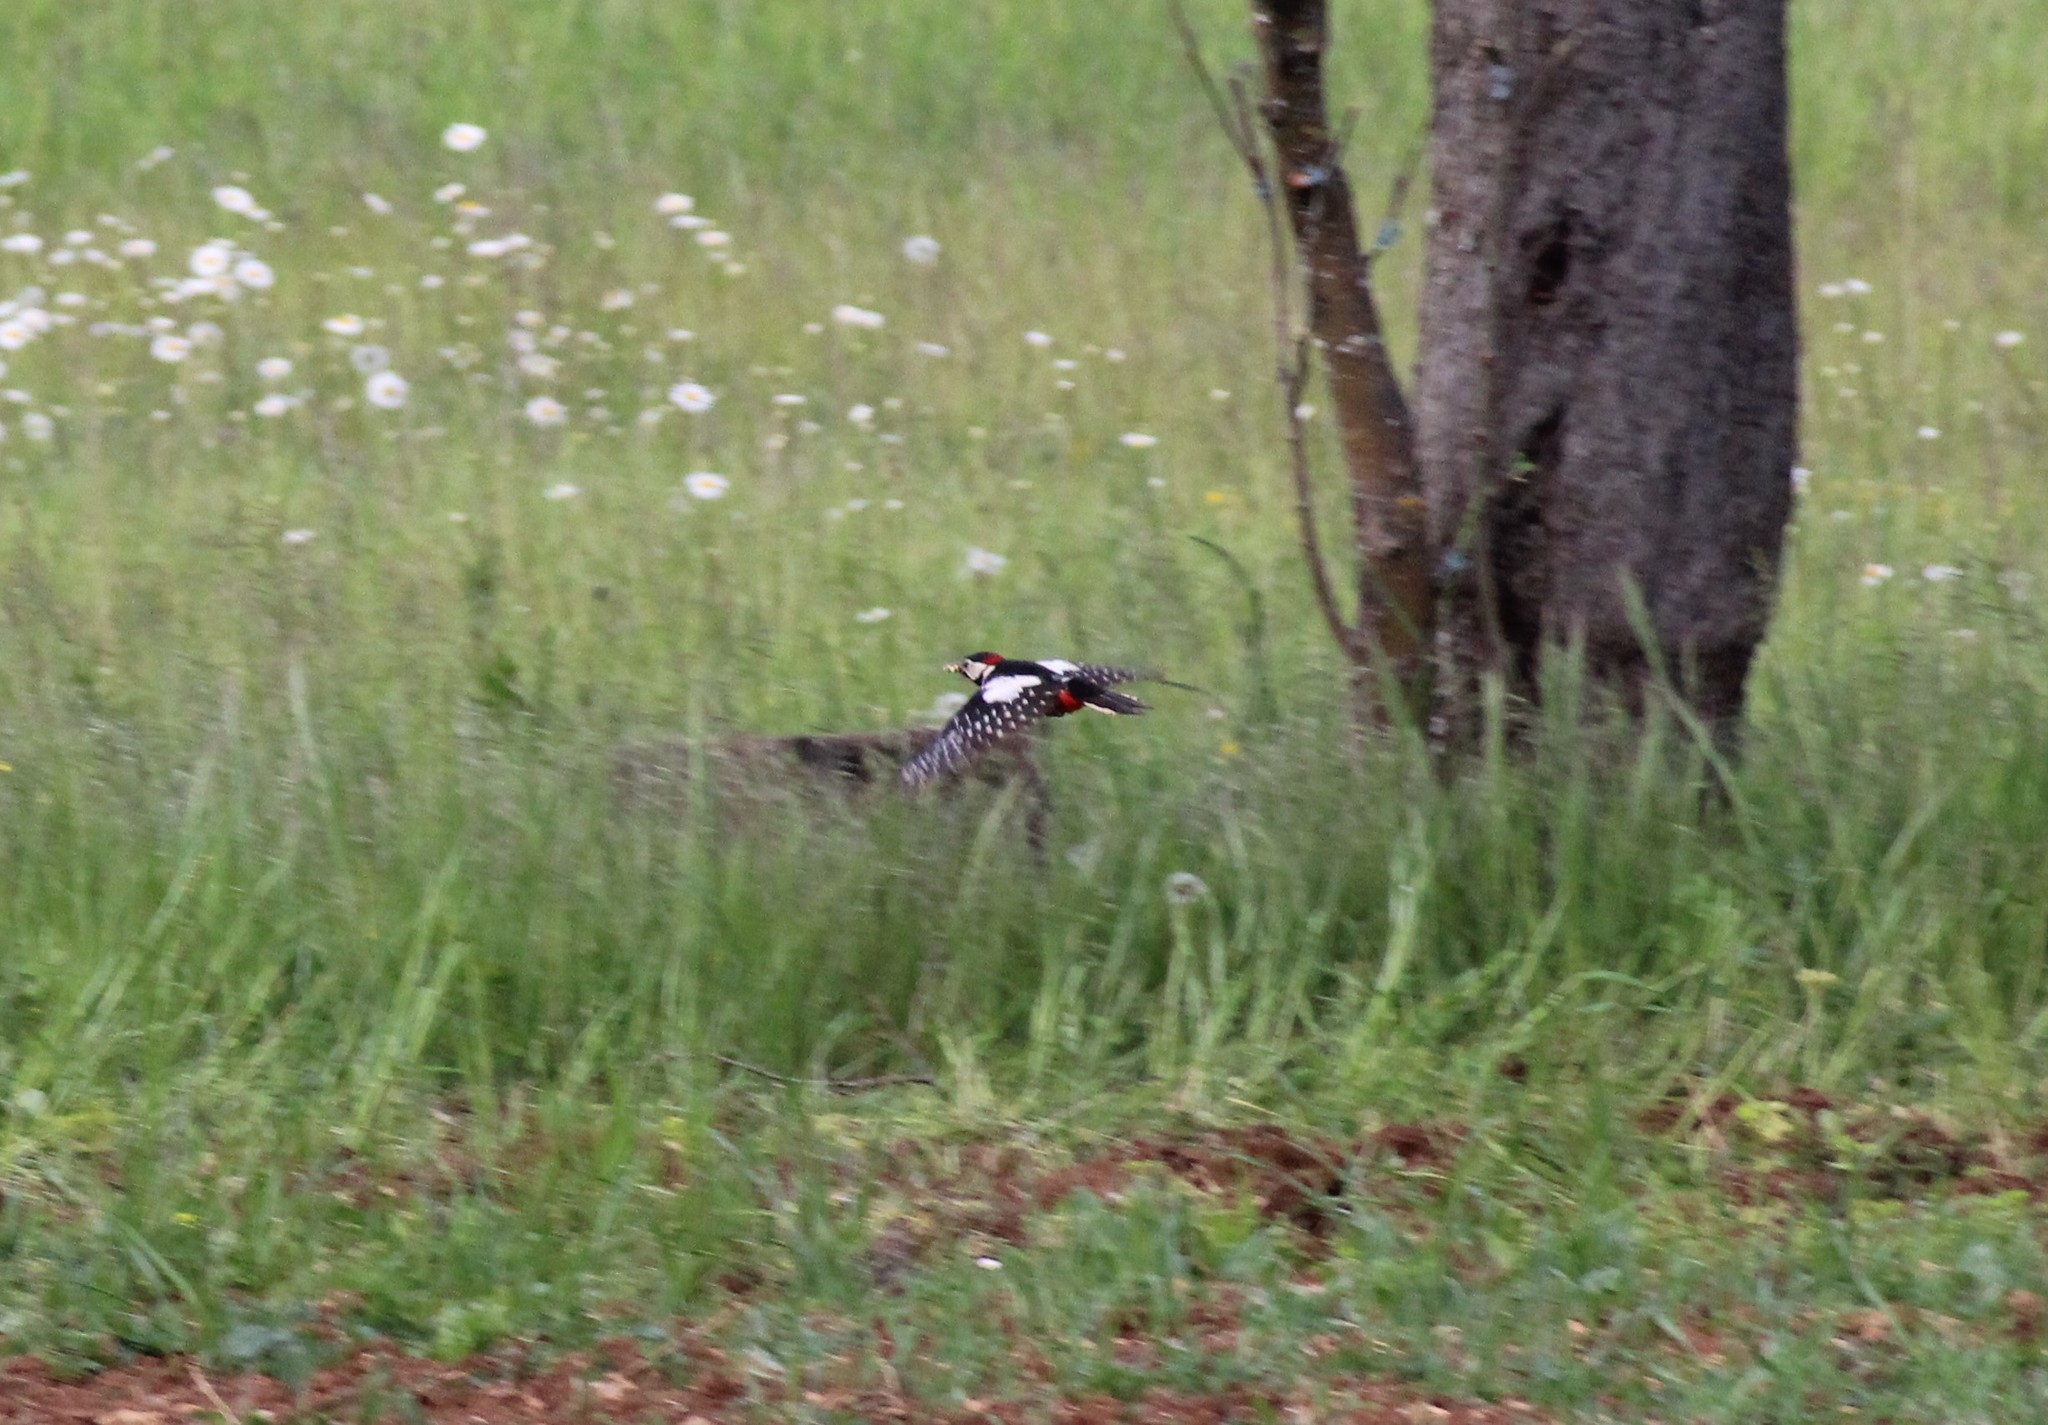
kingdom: Animalia
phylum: Chordata
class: Aves
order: Piciformes
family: Picidae
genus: Dendrocopos
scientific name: Dendrocopos major
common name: Great spotted woodpecker
